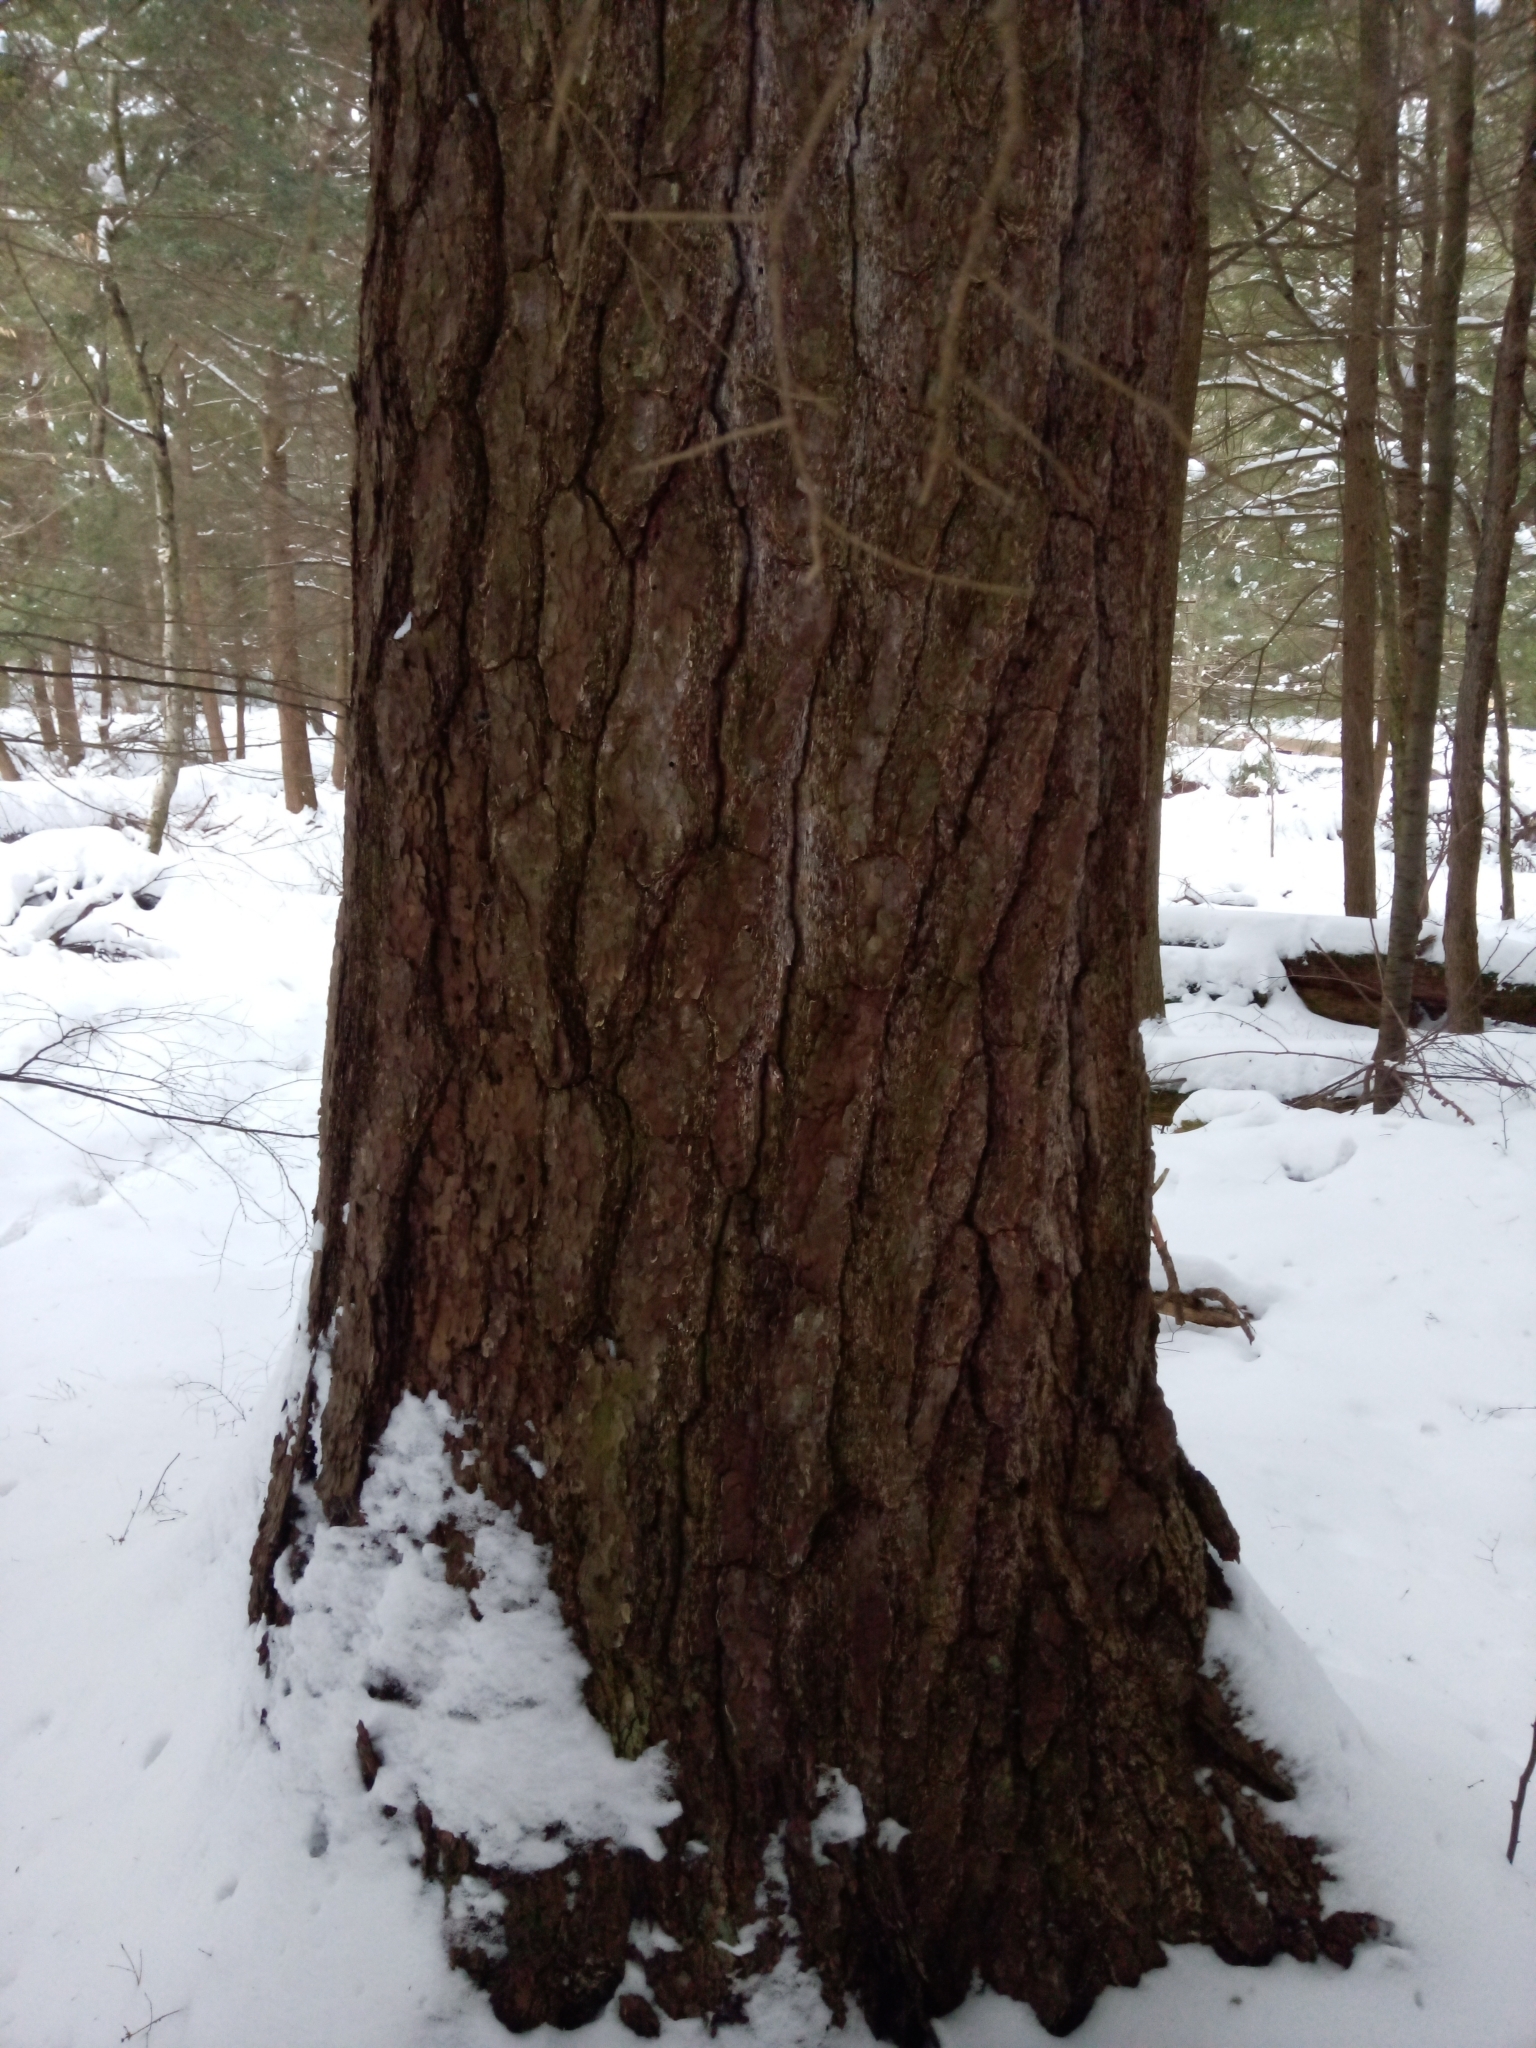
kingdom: Plantae
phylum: Tracheophyta
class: Pinopsida
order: Pinales
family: Pinaceae
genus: Pinus
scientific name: Pinus strobus
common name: Weymouth pine
